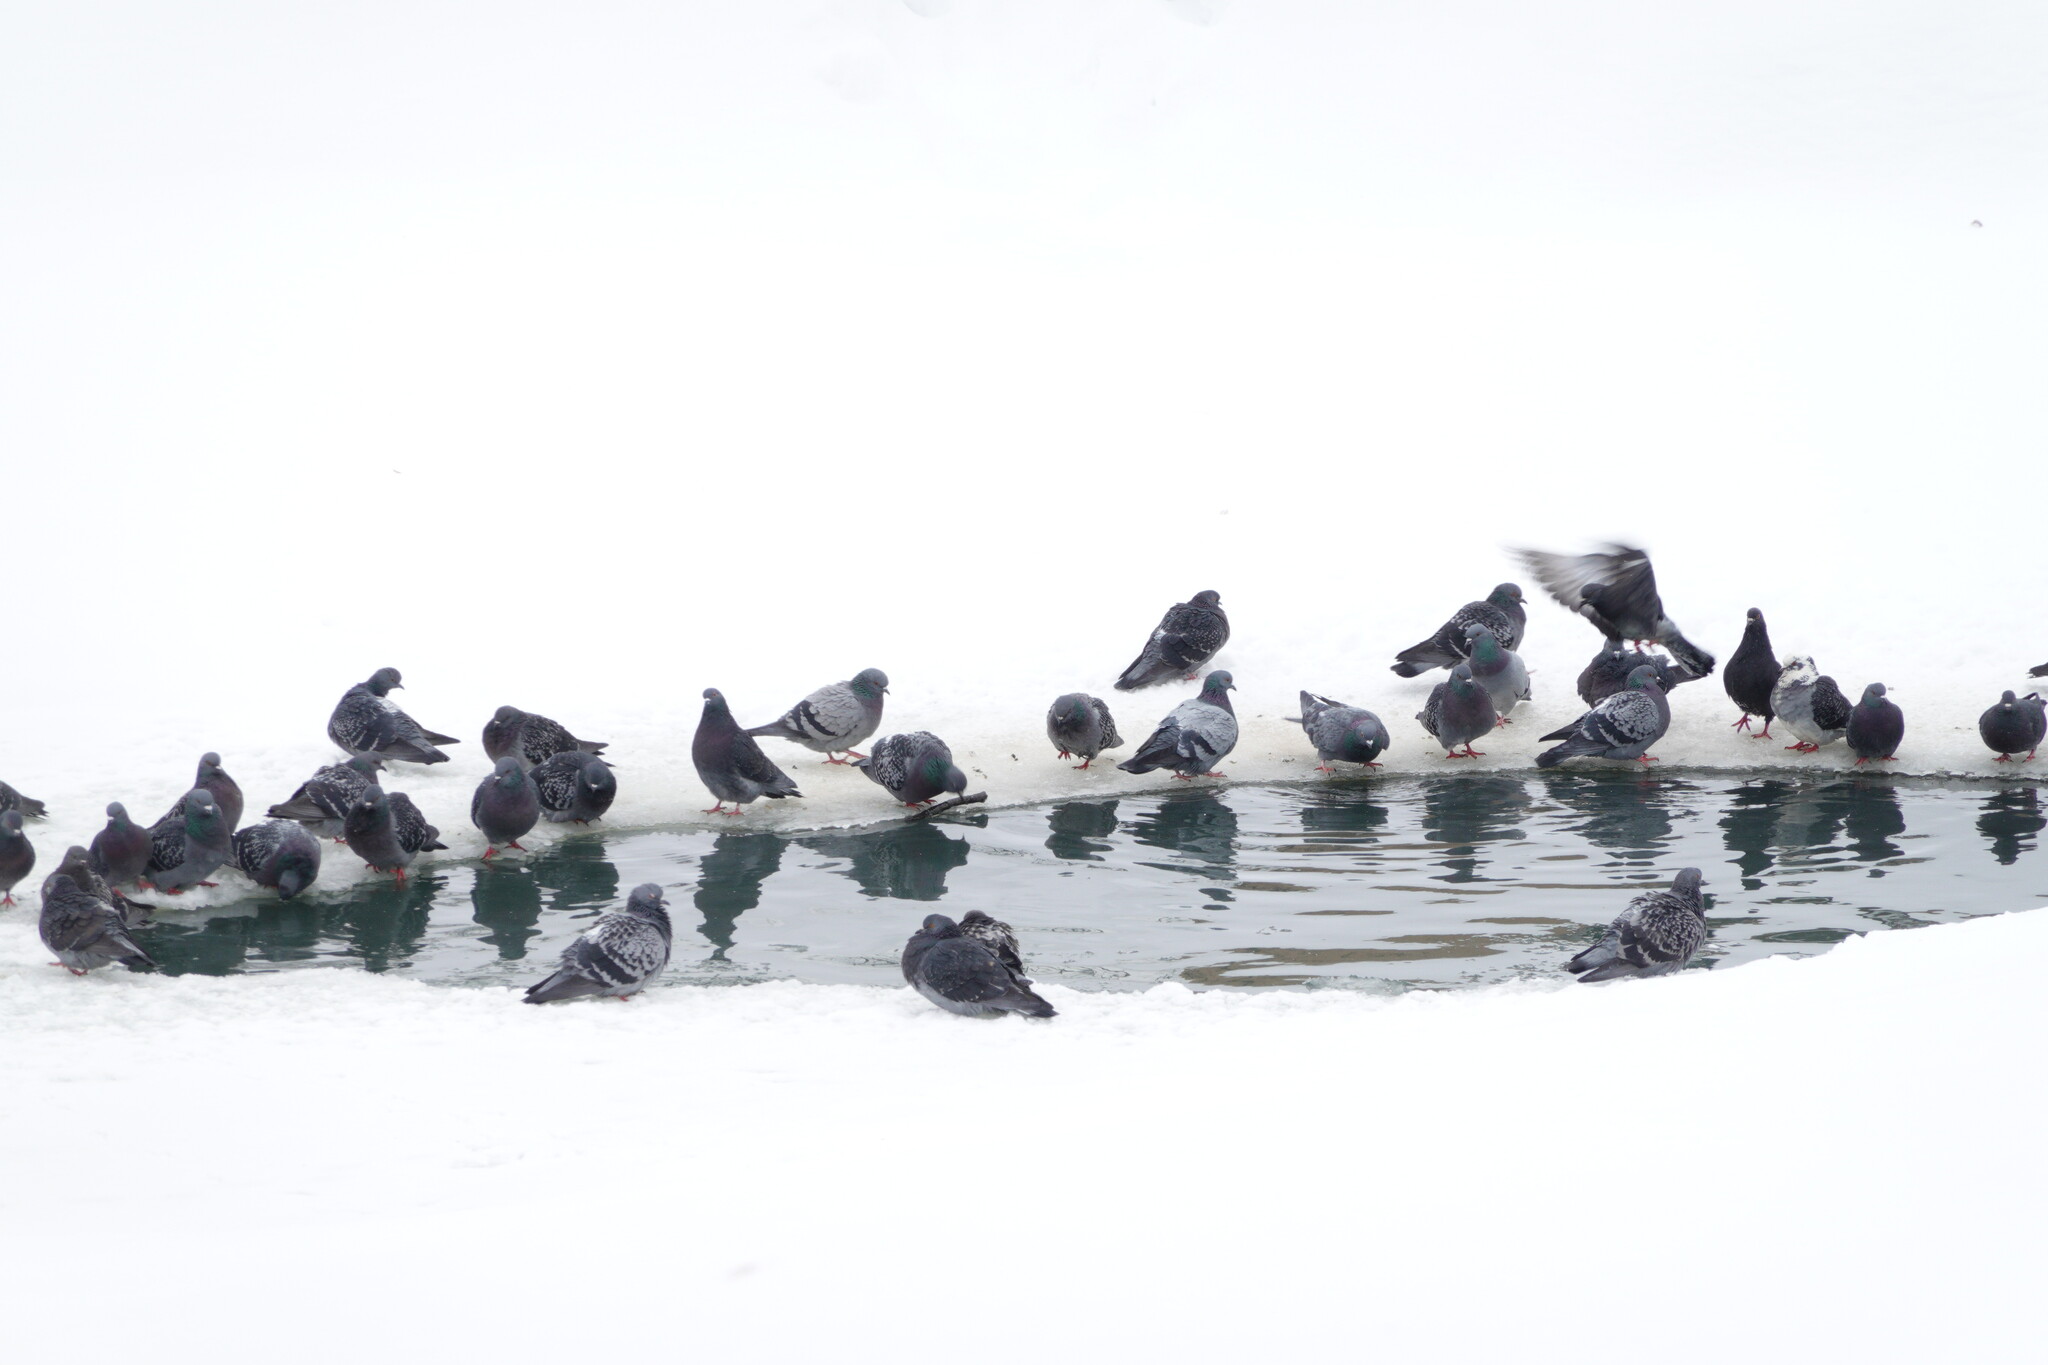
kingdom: Animalia
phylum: Chordata
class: Aves
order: Columbiformes
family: Columbidae
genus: Columba
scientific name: Columba livia
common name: Rock pigeon
